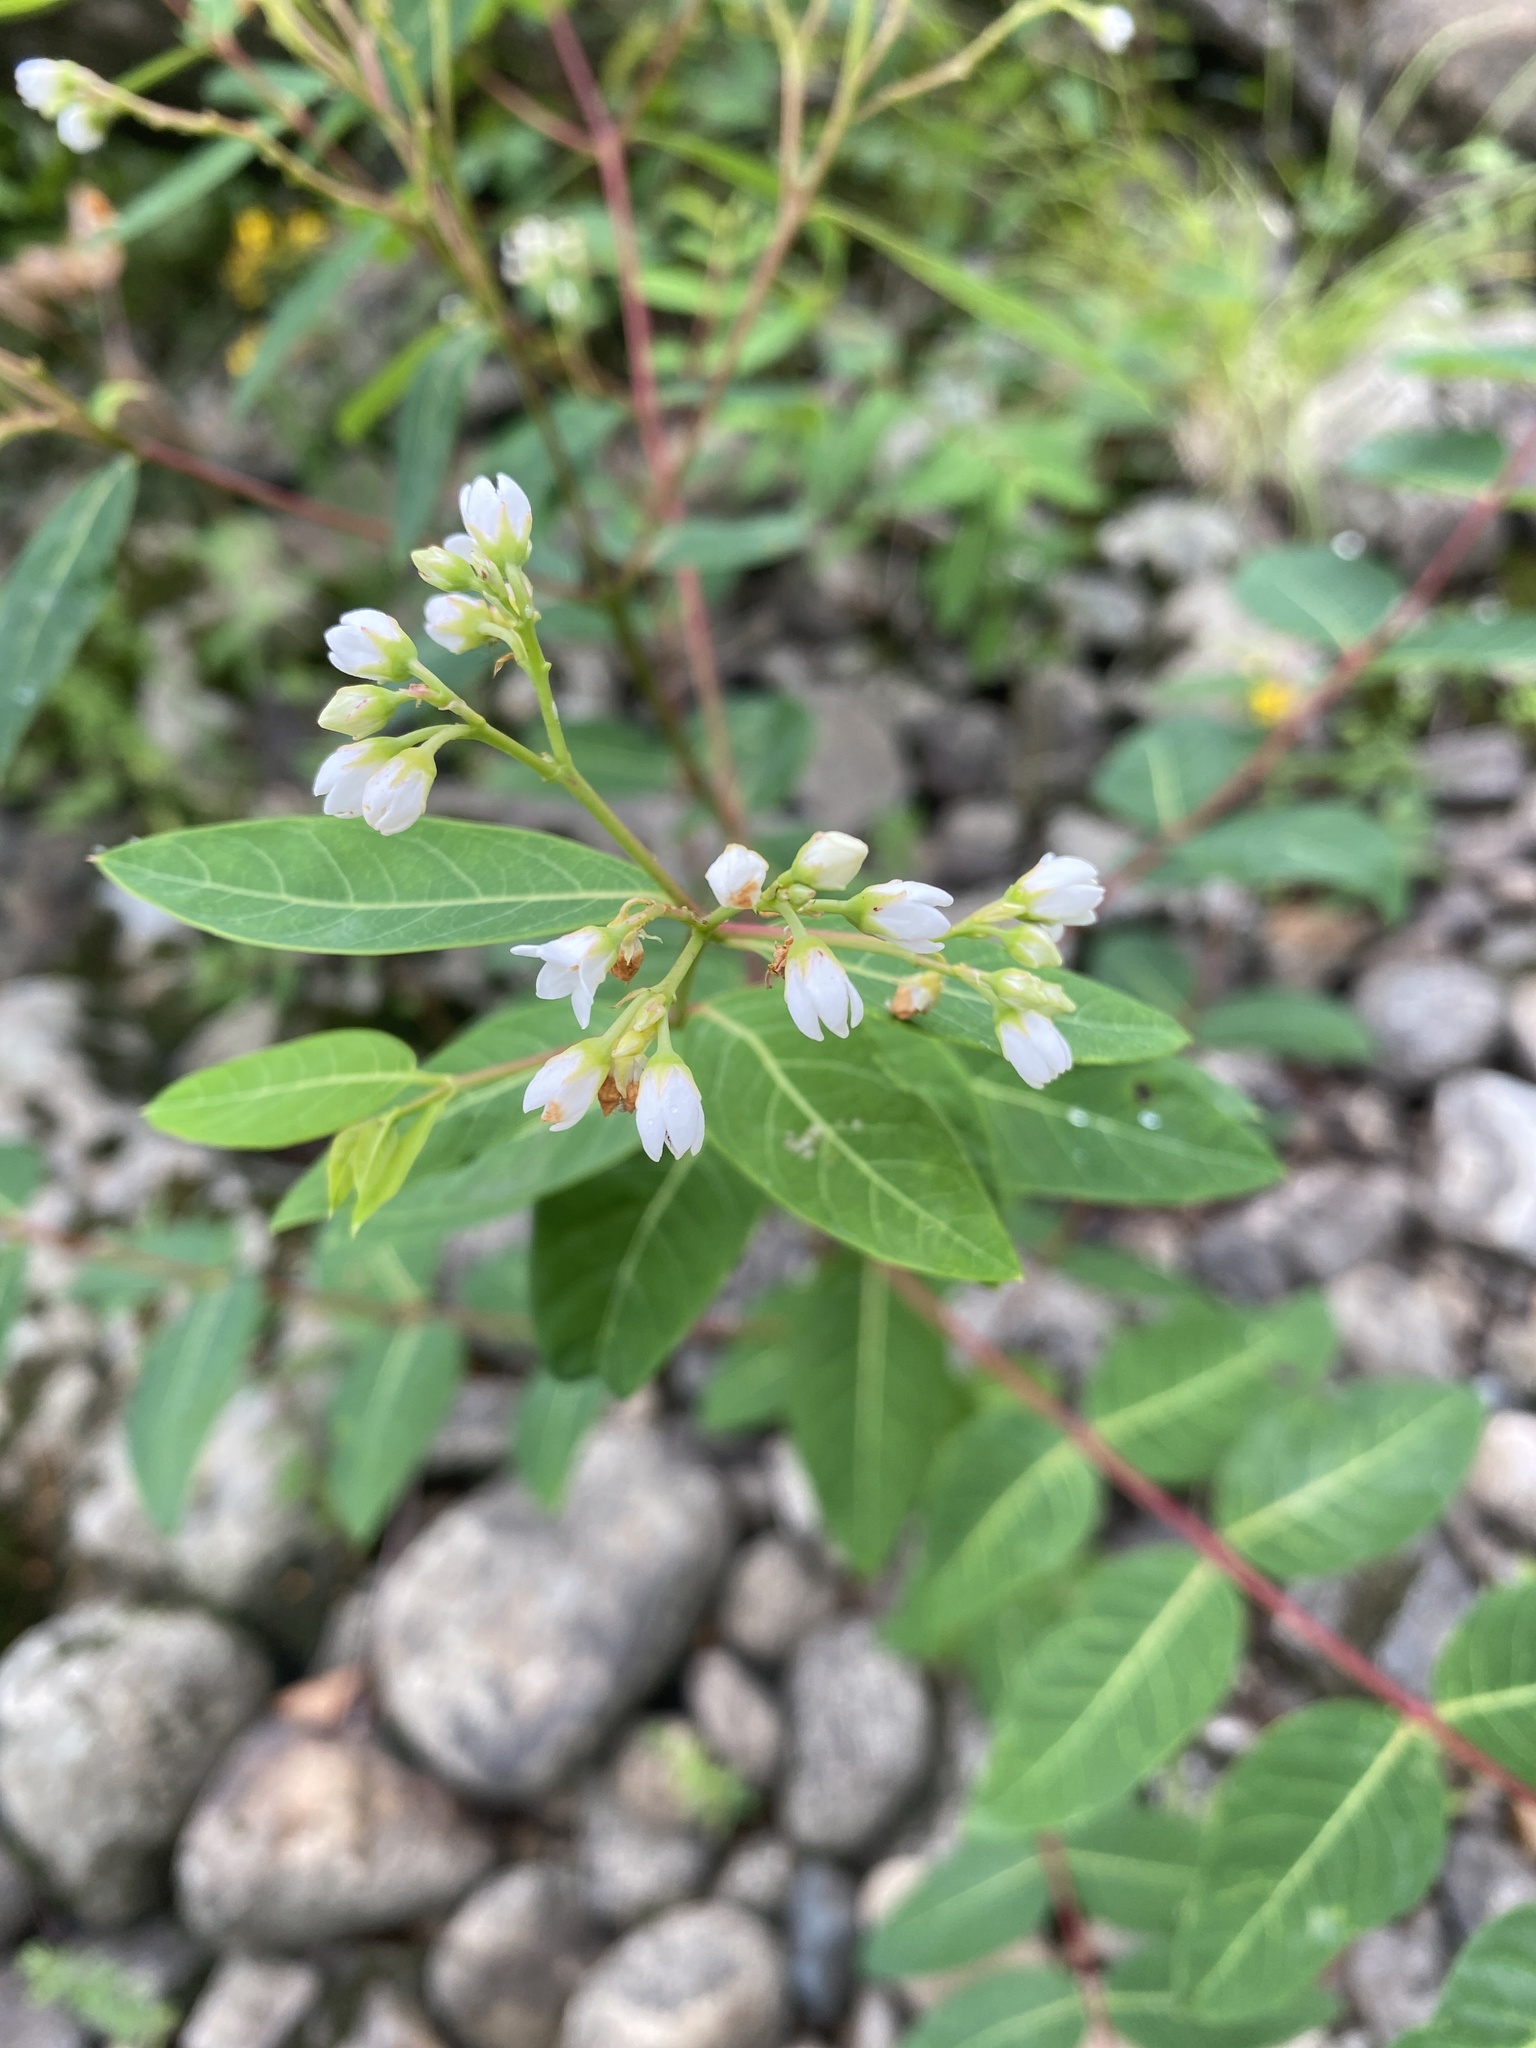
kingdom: Plantae
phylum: Tracheophyta
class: Magnoliopsida
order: Gentianales
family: Apocynaceae
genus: Apocynum
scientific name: Apocynum cannabinum
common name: Hemp dogbane
